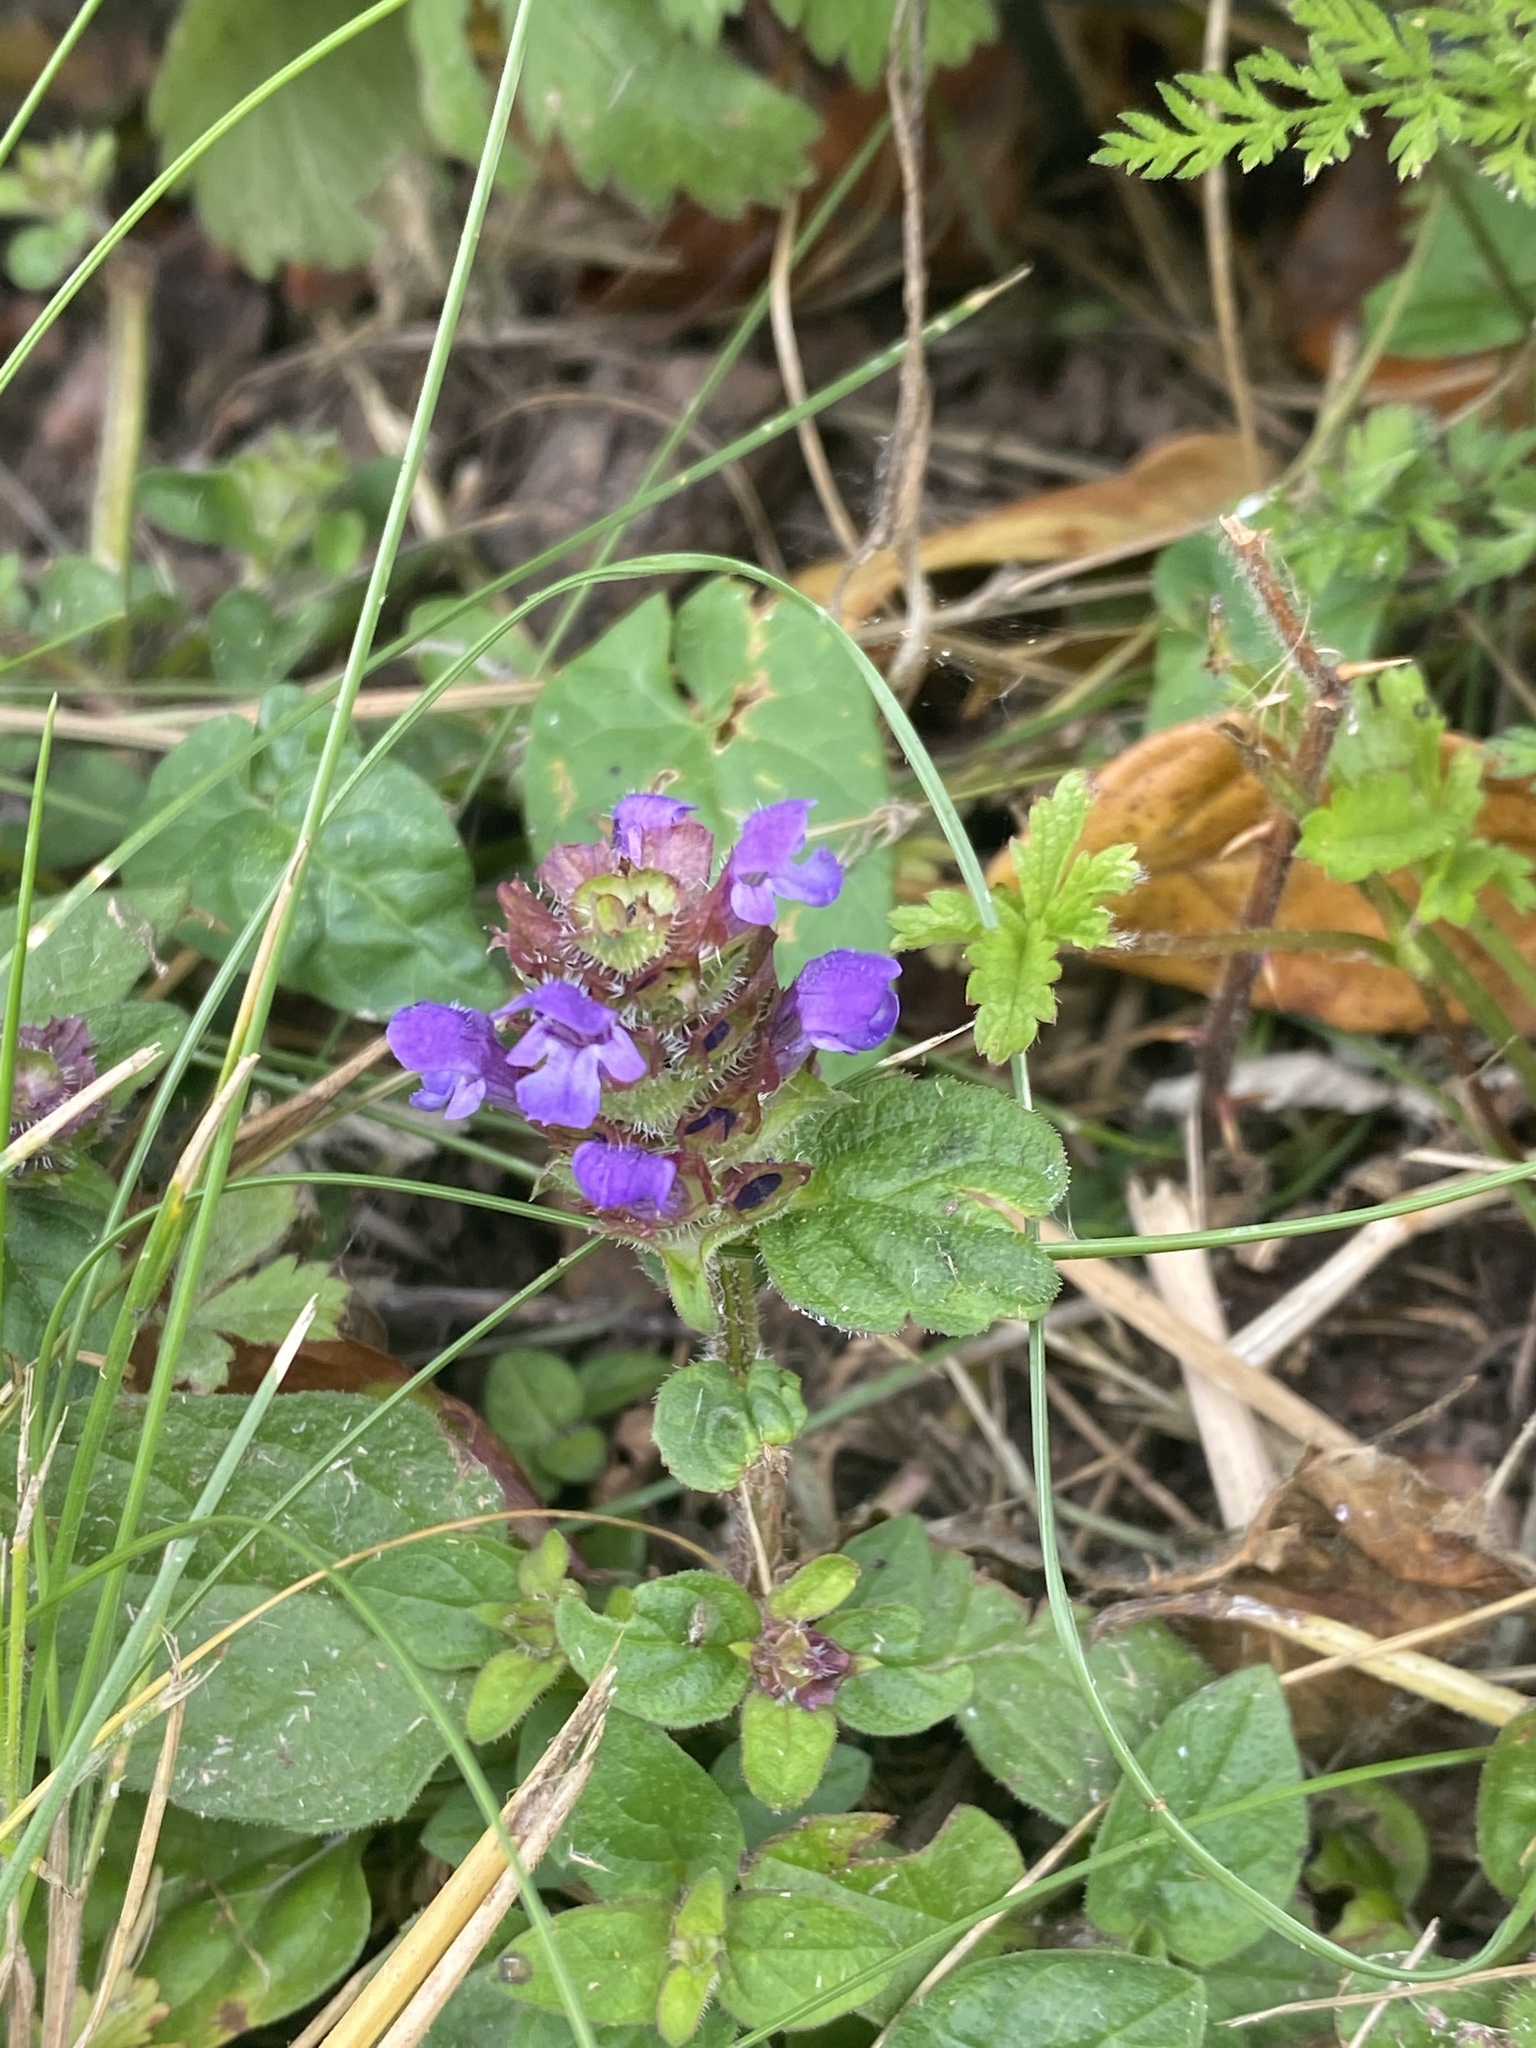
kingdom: Plantae
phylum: Tracheophyta
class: Magnoliopsida
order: Lamiales
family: Lamiaceae
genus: Prunella
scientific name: Prunella vulgaris
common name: Heal-all
